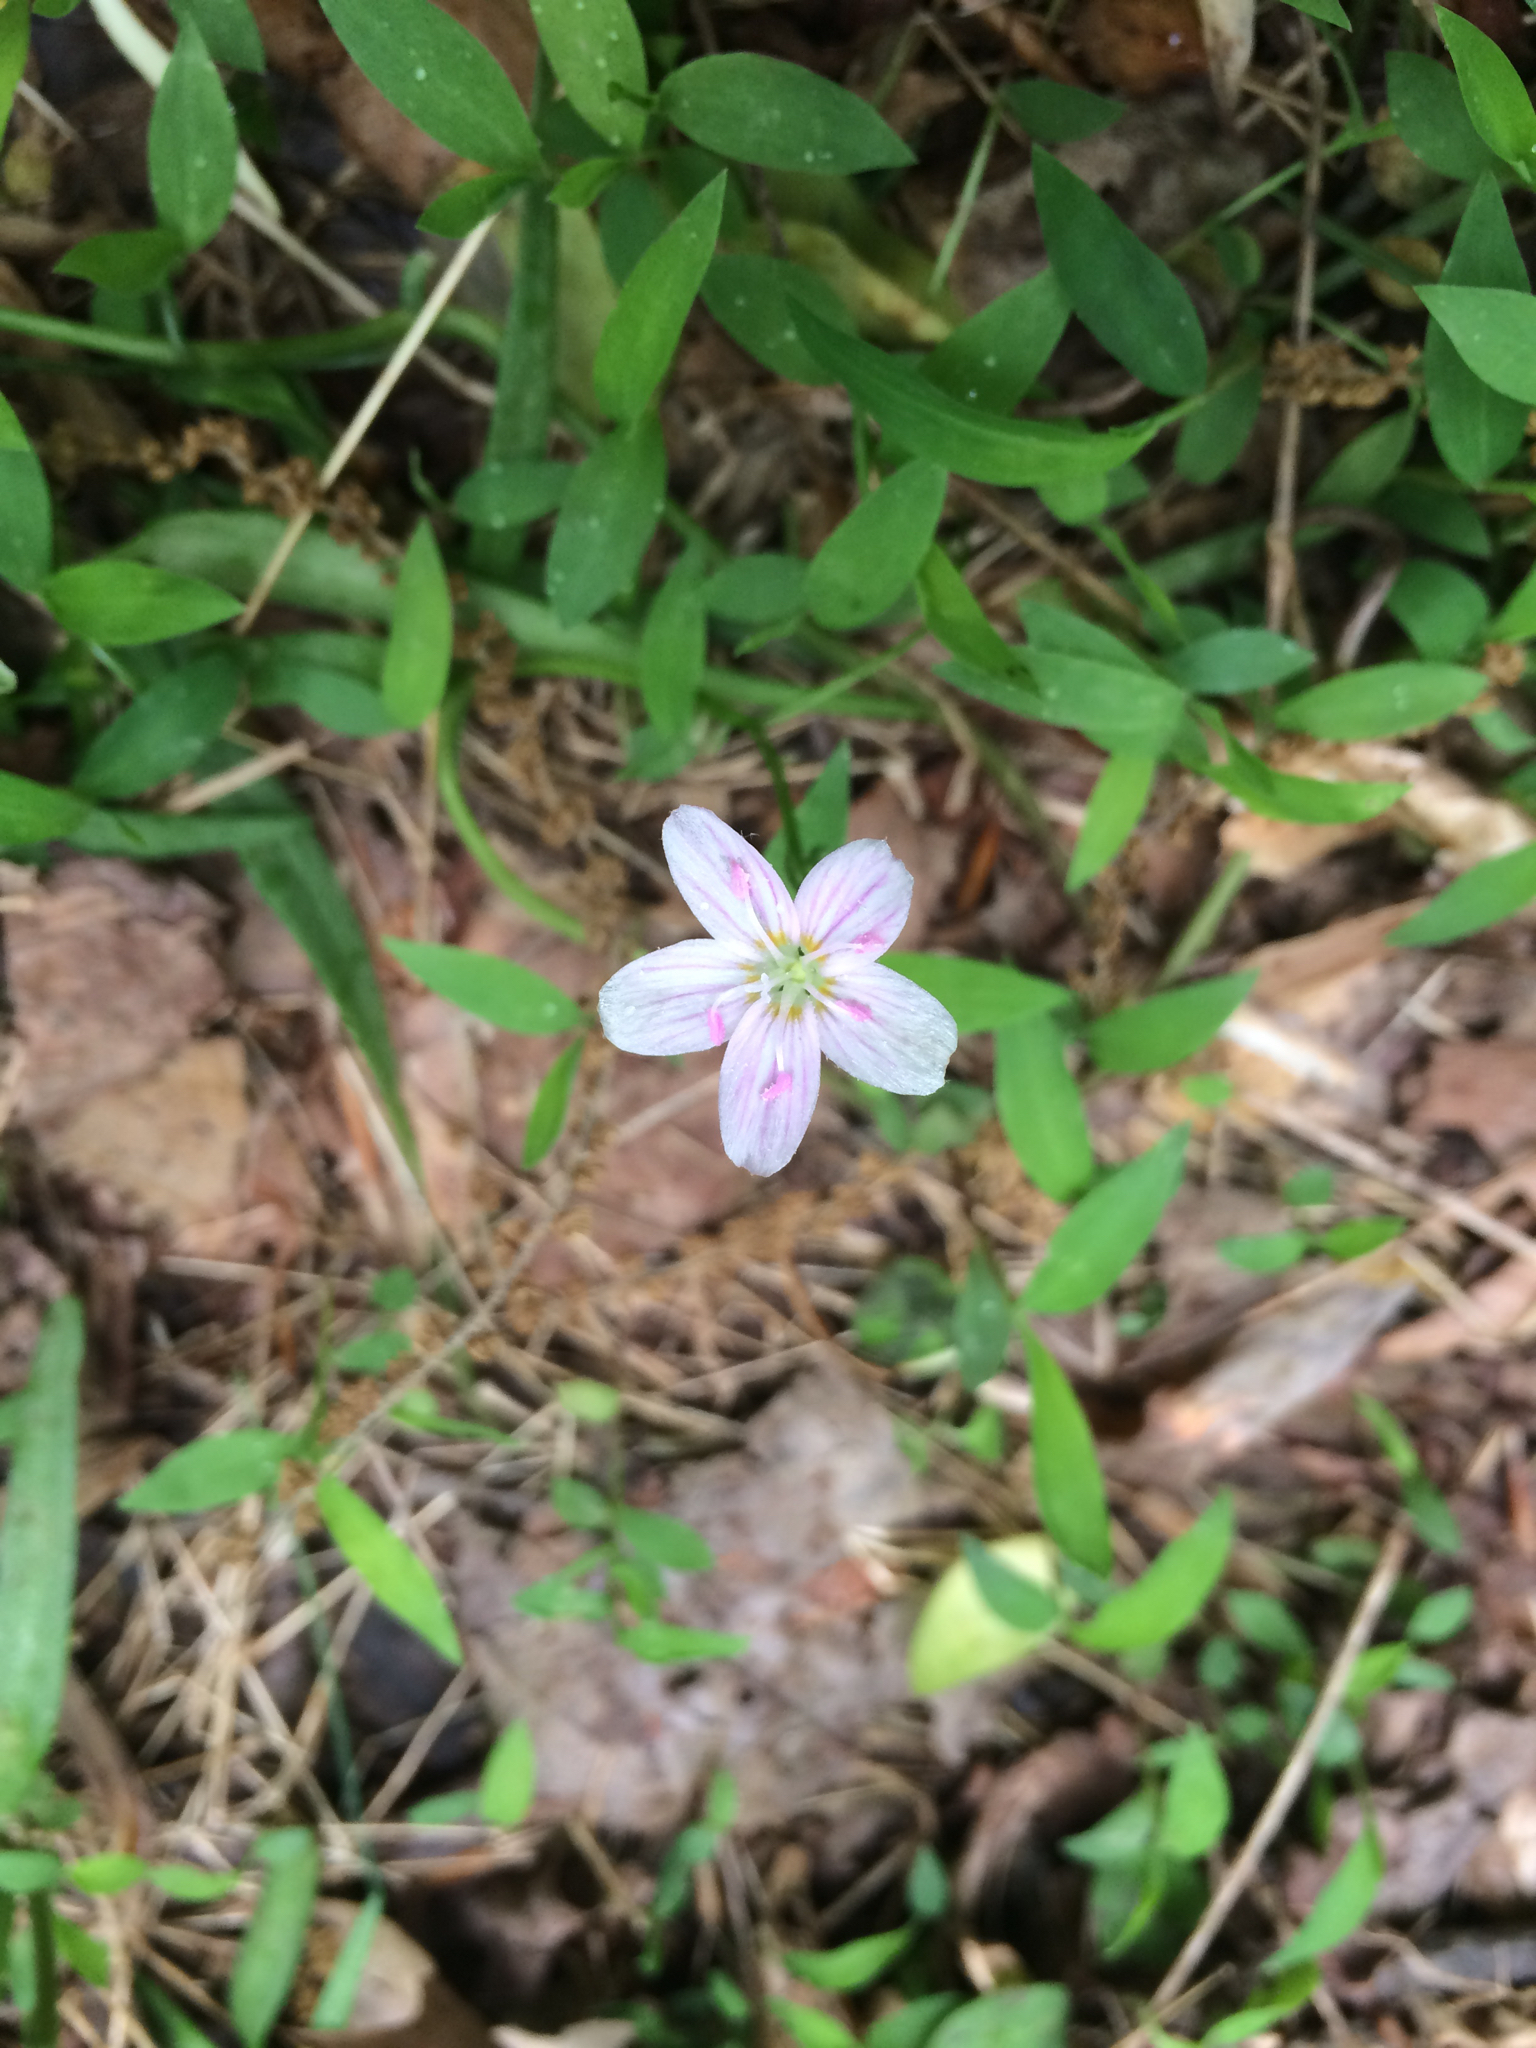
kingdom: Plantae
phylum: Tracheophyta
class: Magnoliopsida
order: Caryophyllales
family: Montiaceae
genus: Claytonia
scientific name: Claytonia virginica
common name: Virginia springbeauty
